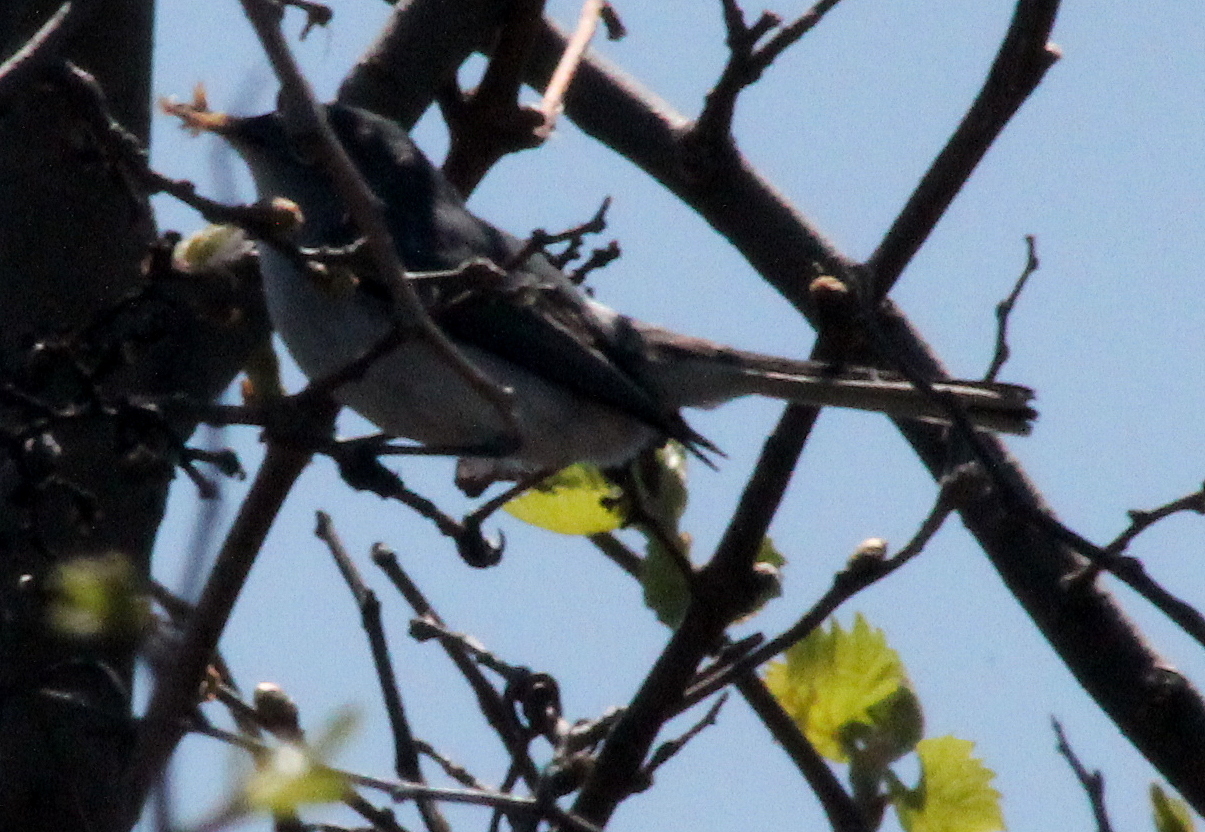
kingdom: Animalia
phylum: Chordata
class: Aves
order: Passeriformes
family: Polioptilidae
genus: Polioptila
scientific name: Polioptila caerulea
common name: Blue-gray gnatcatcher
